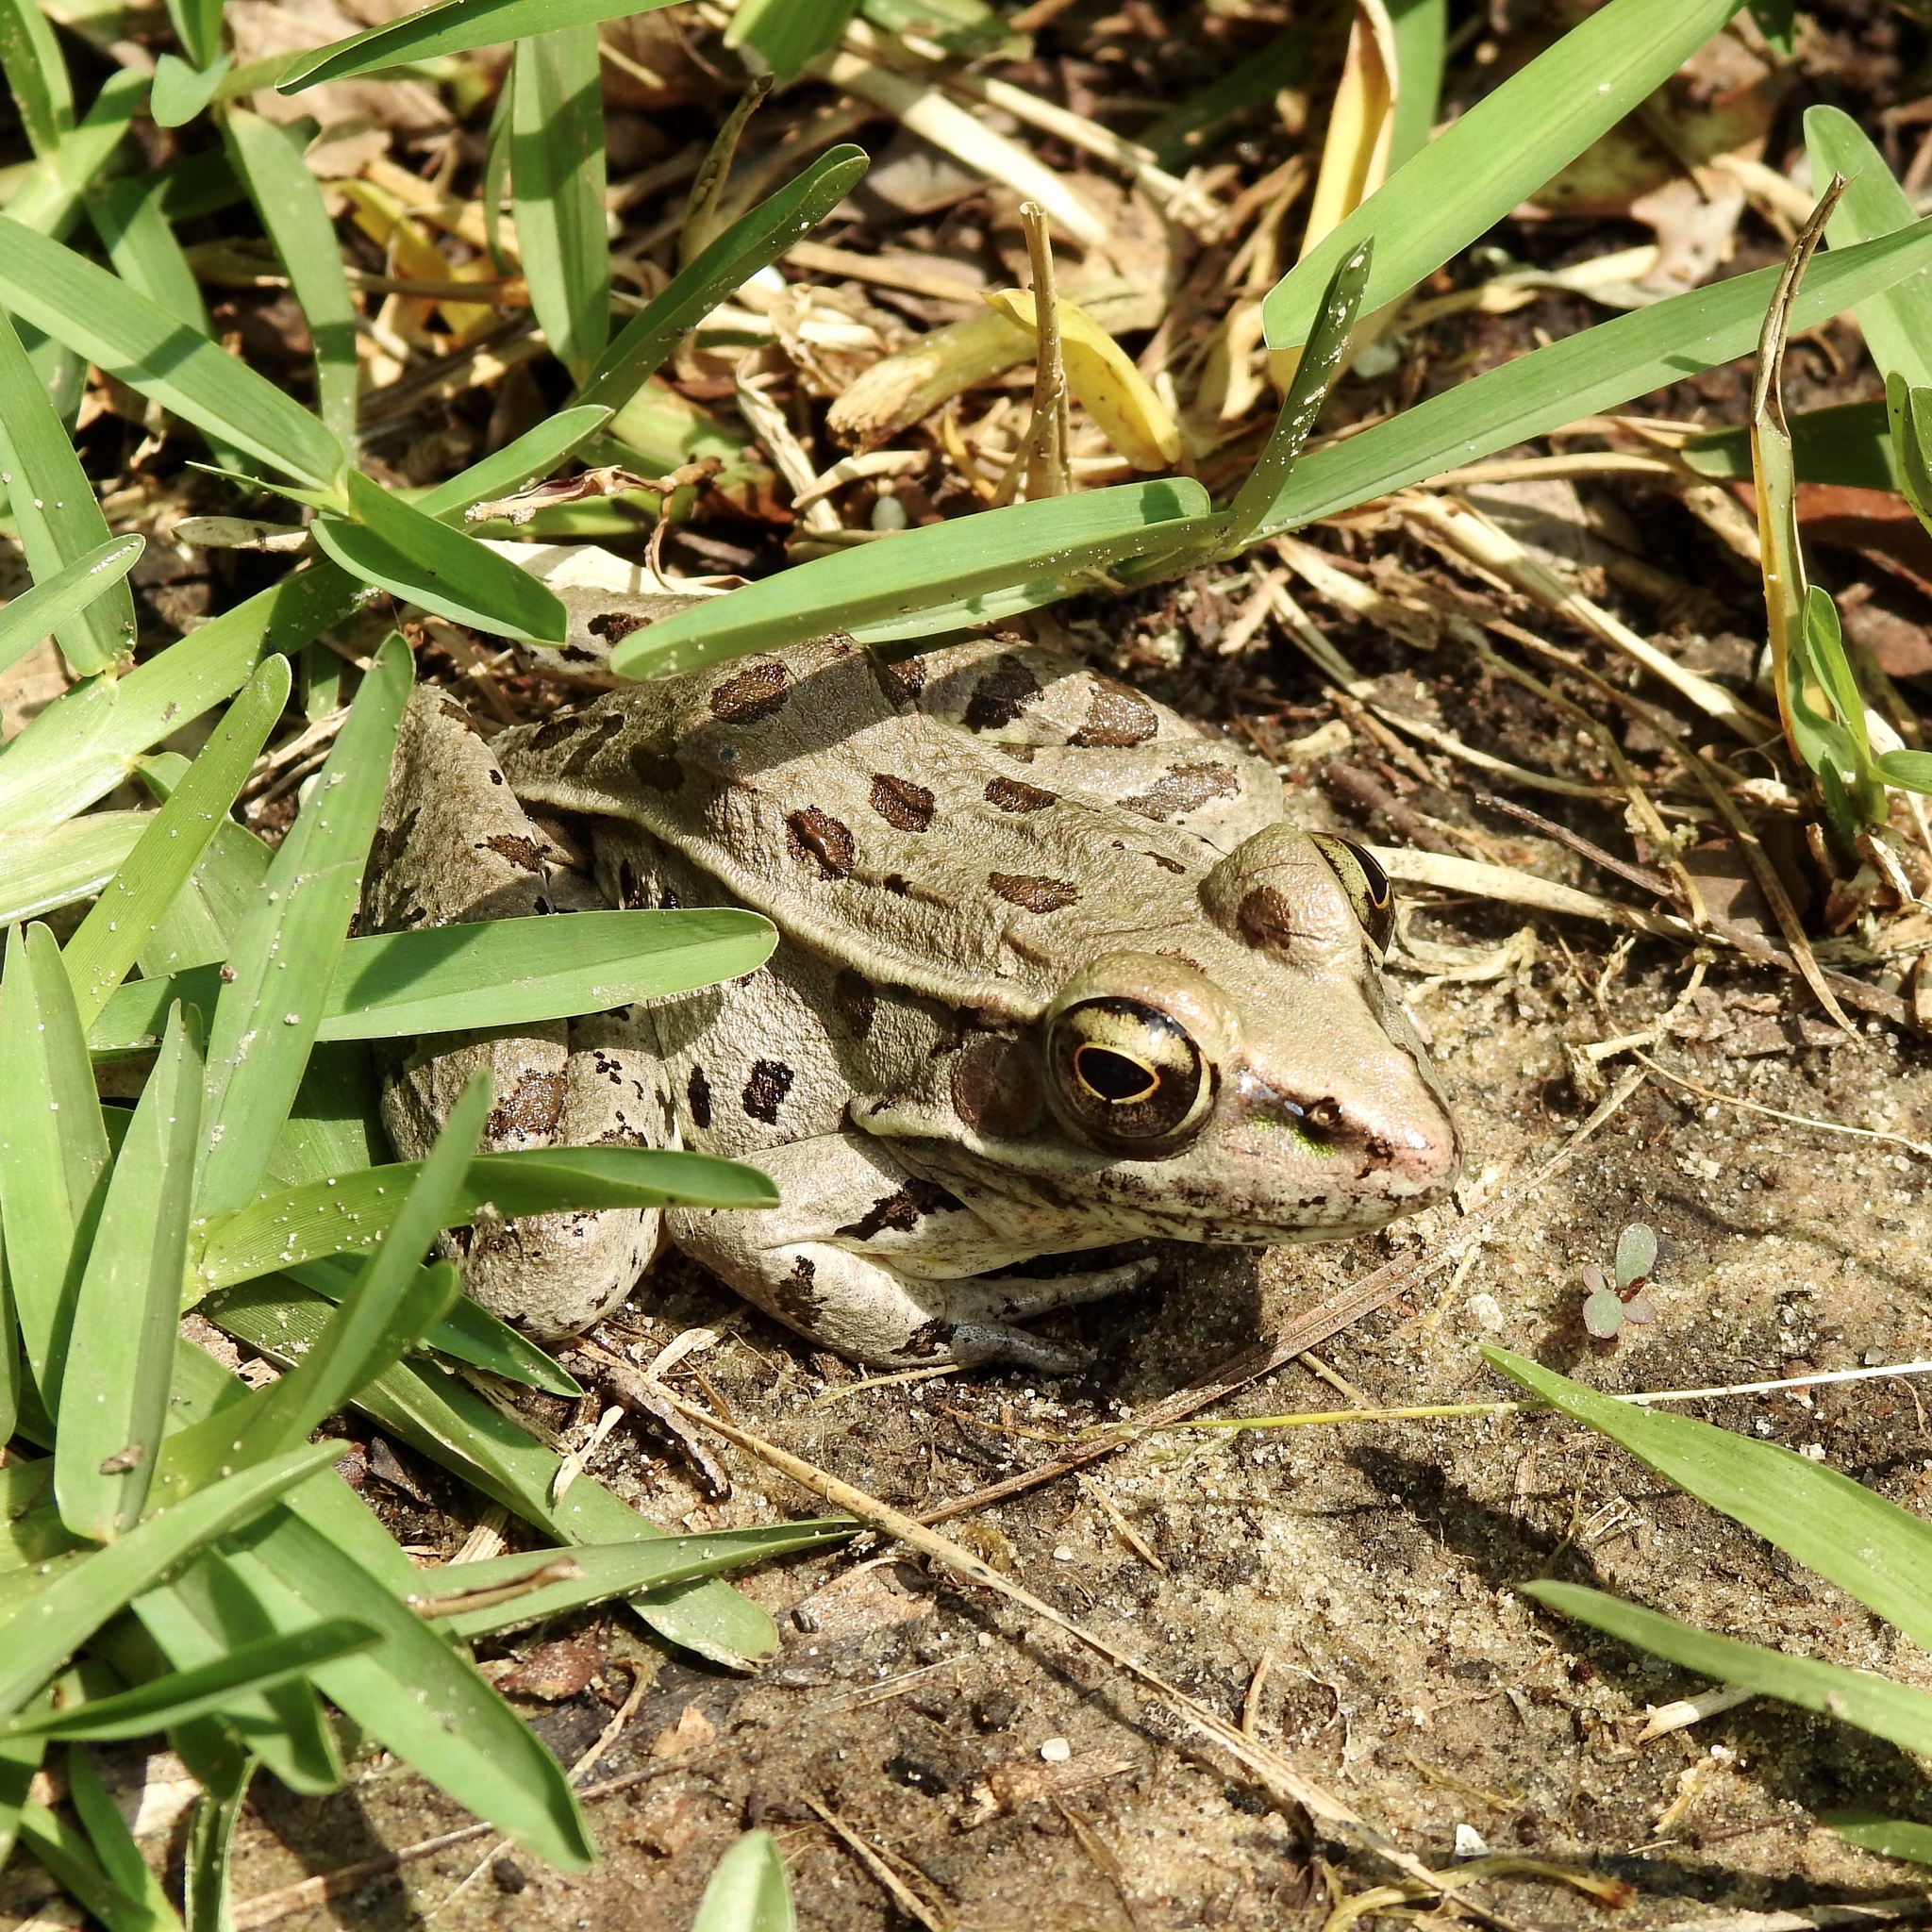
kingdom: Animalia
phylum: Chordata
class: Amphibia
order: Anura
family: Ranidae
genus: Lithobates
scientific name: Lithobates sphenocephalus
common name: Southern leopard frog
